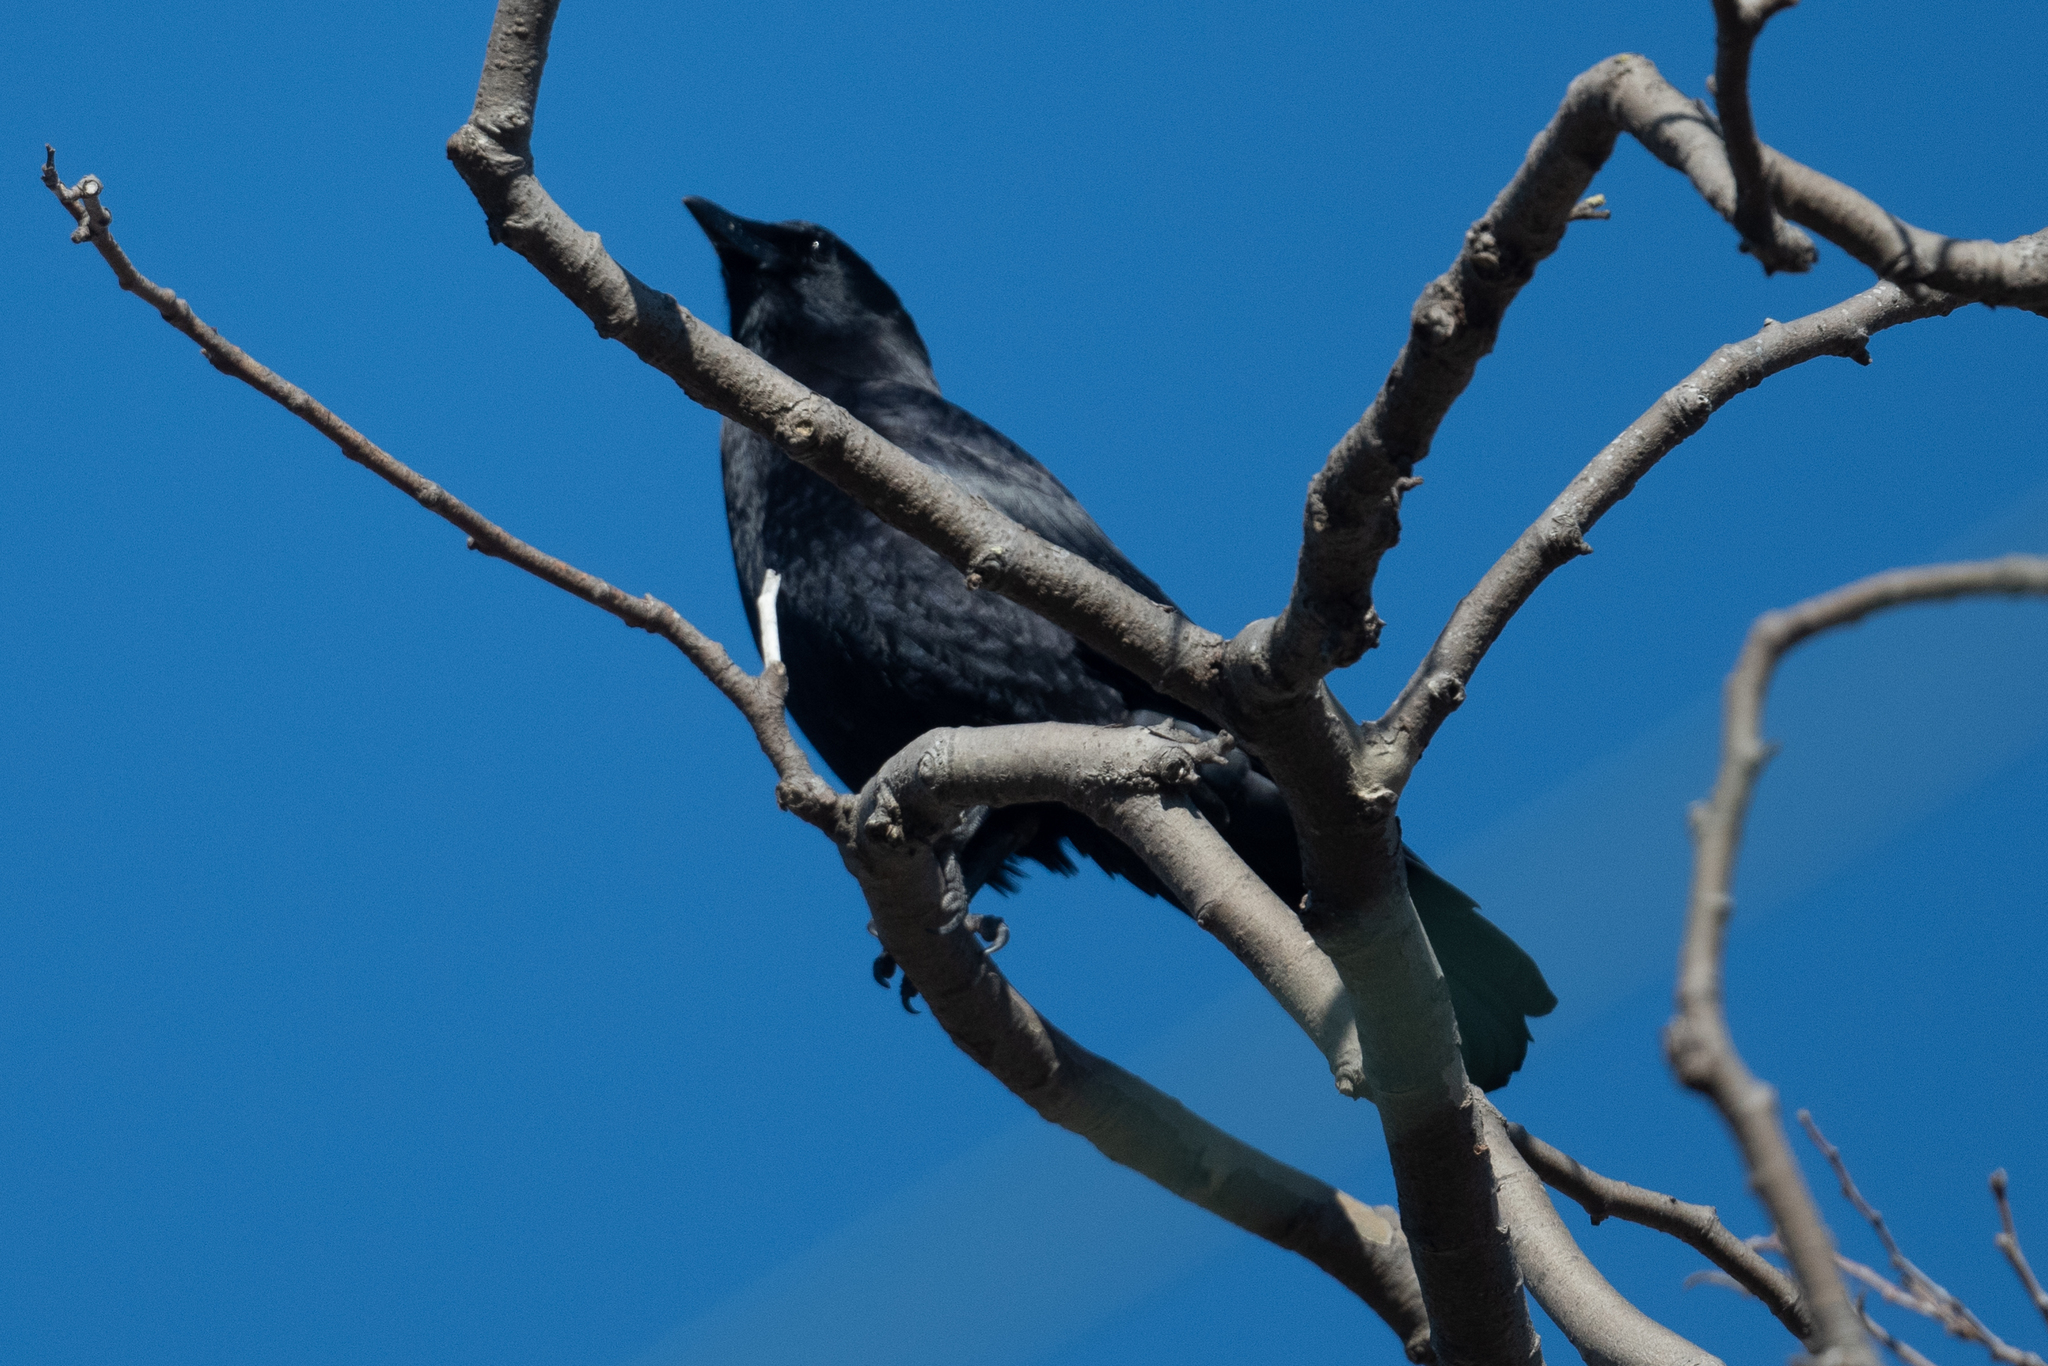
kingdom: Animalia
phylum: Chordata
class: Aves
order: Passeriformes
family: Corvidae
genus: Corvus
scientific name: Corvus brachyrhynchos
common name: American crow
